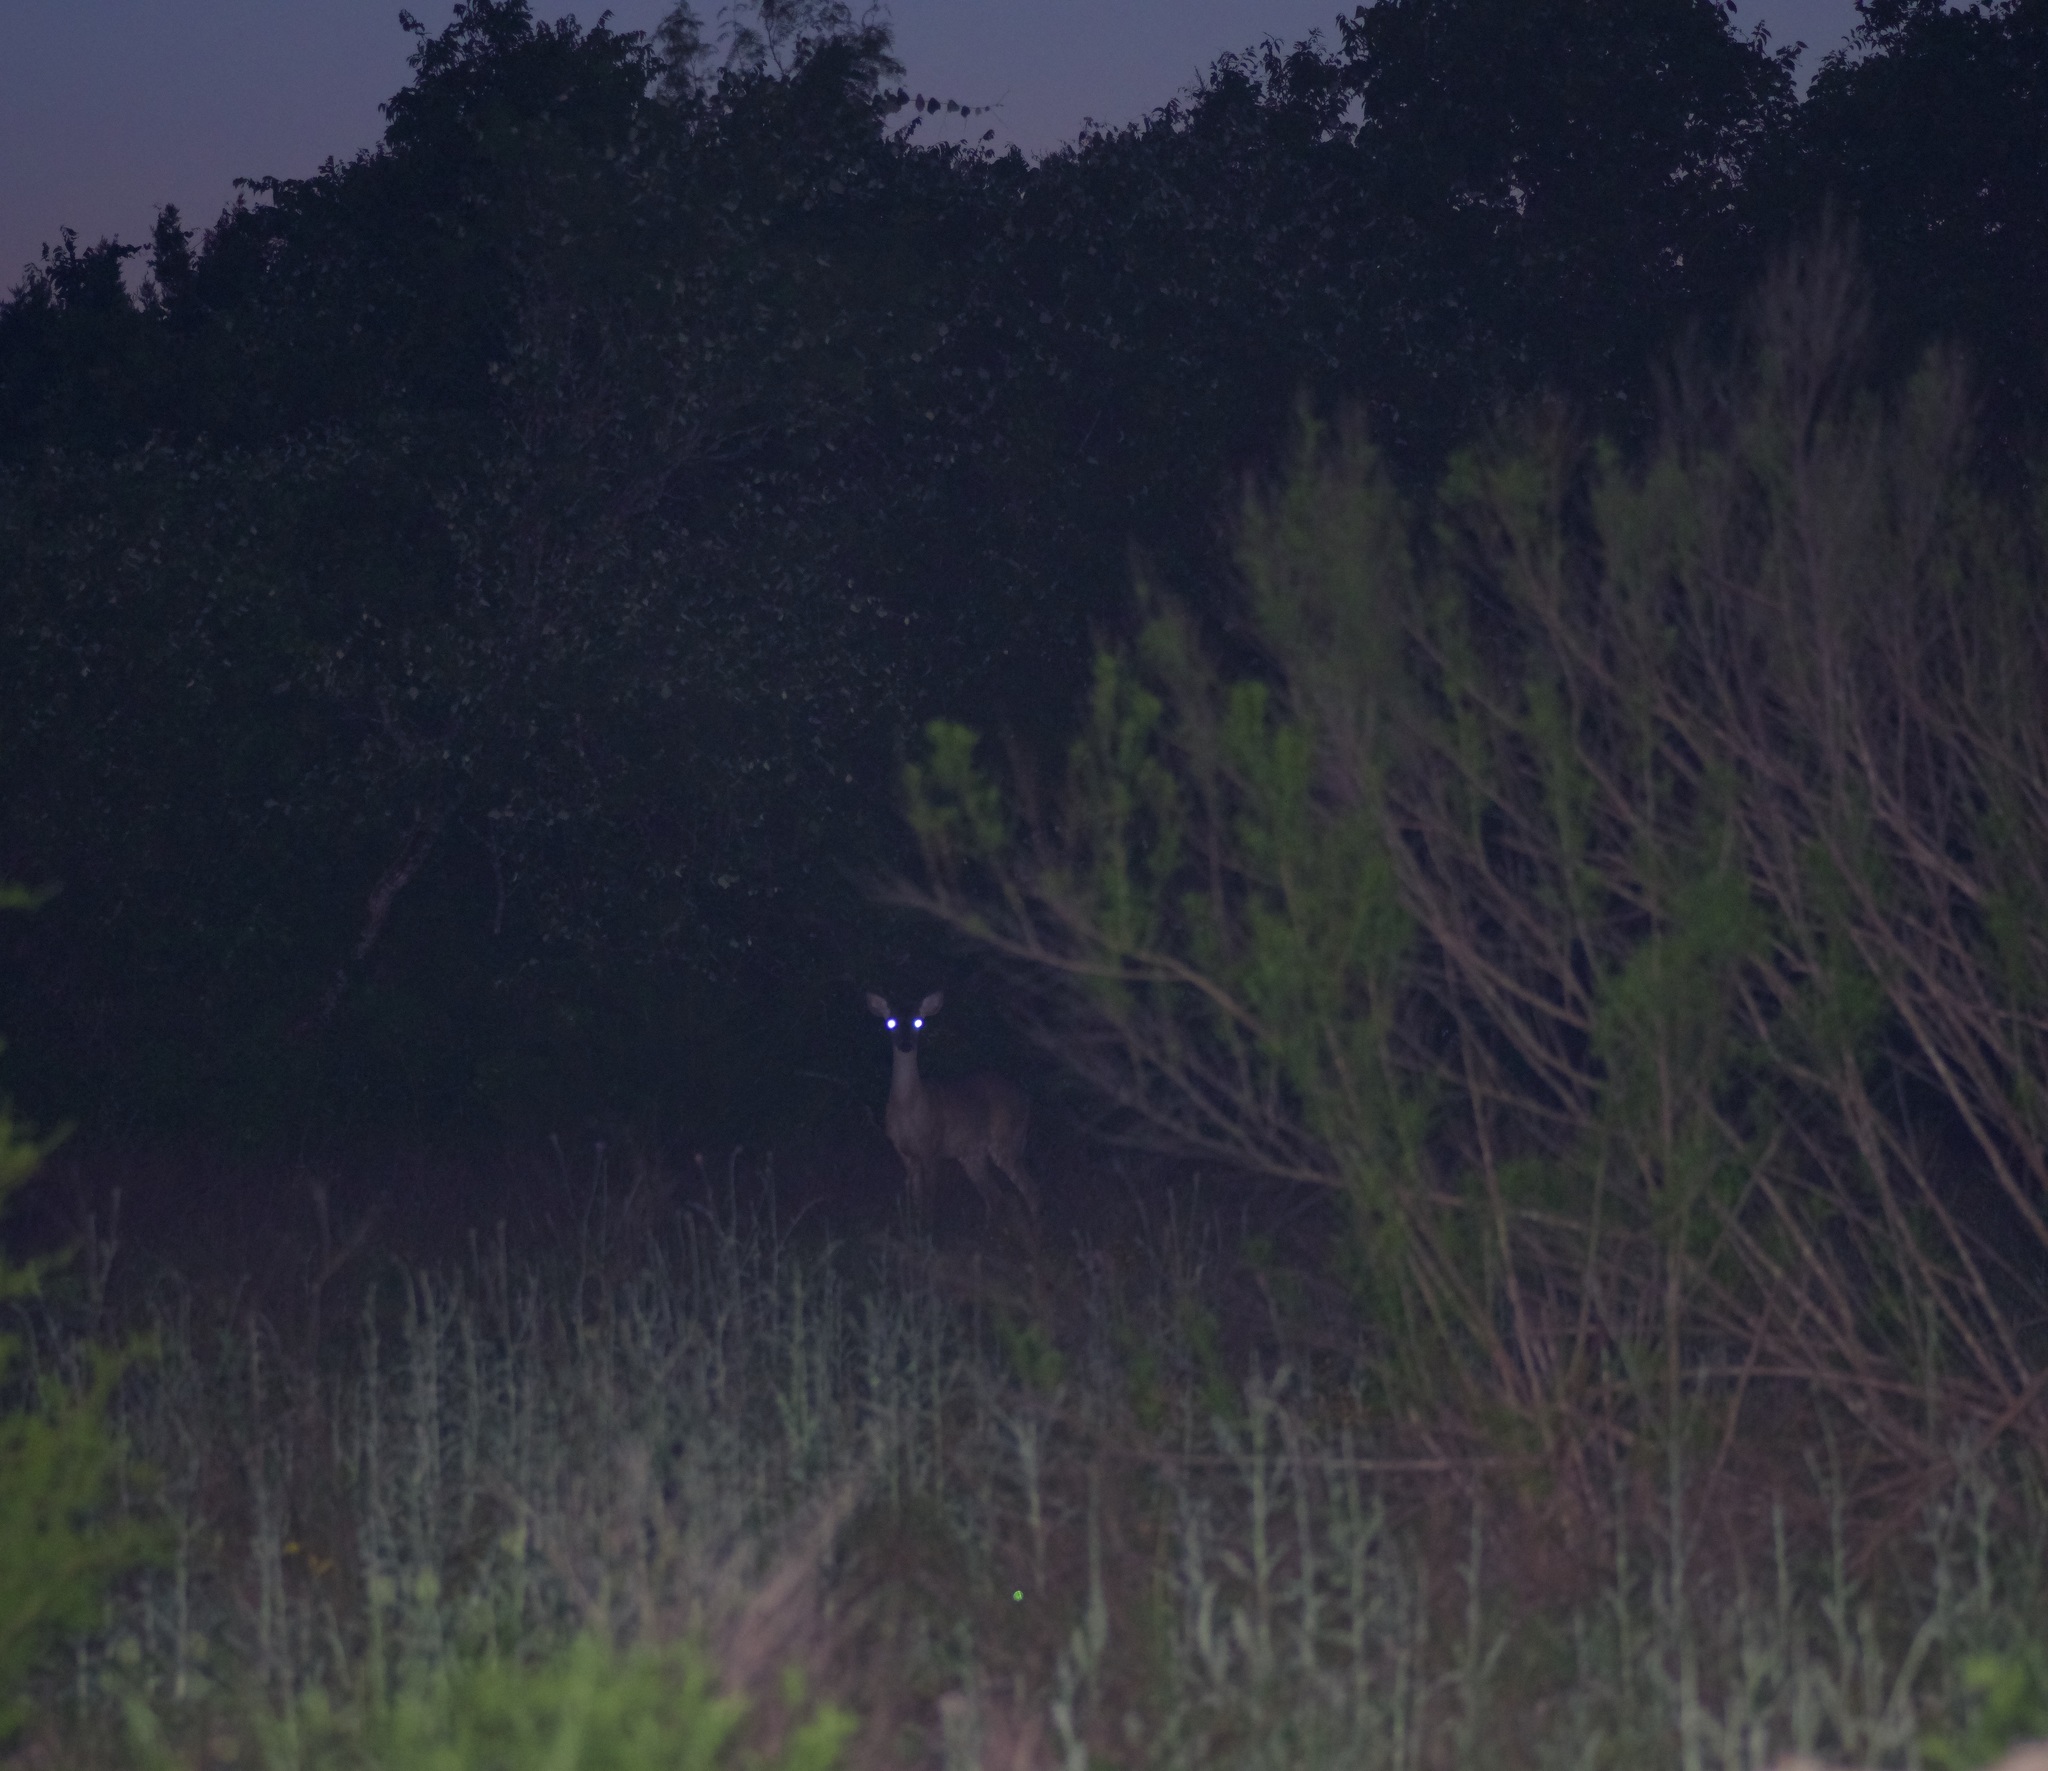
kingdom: Animalia
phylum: Chordata
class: Mammalia
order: Artiodactyla
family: Cervidae
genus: Odocoileus
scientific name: Odocoileus virginianus
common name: White-tailed deer
